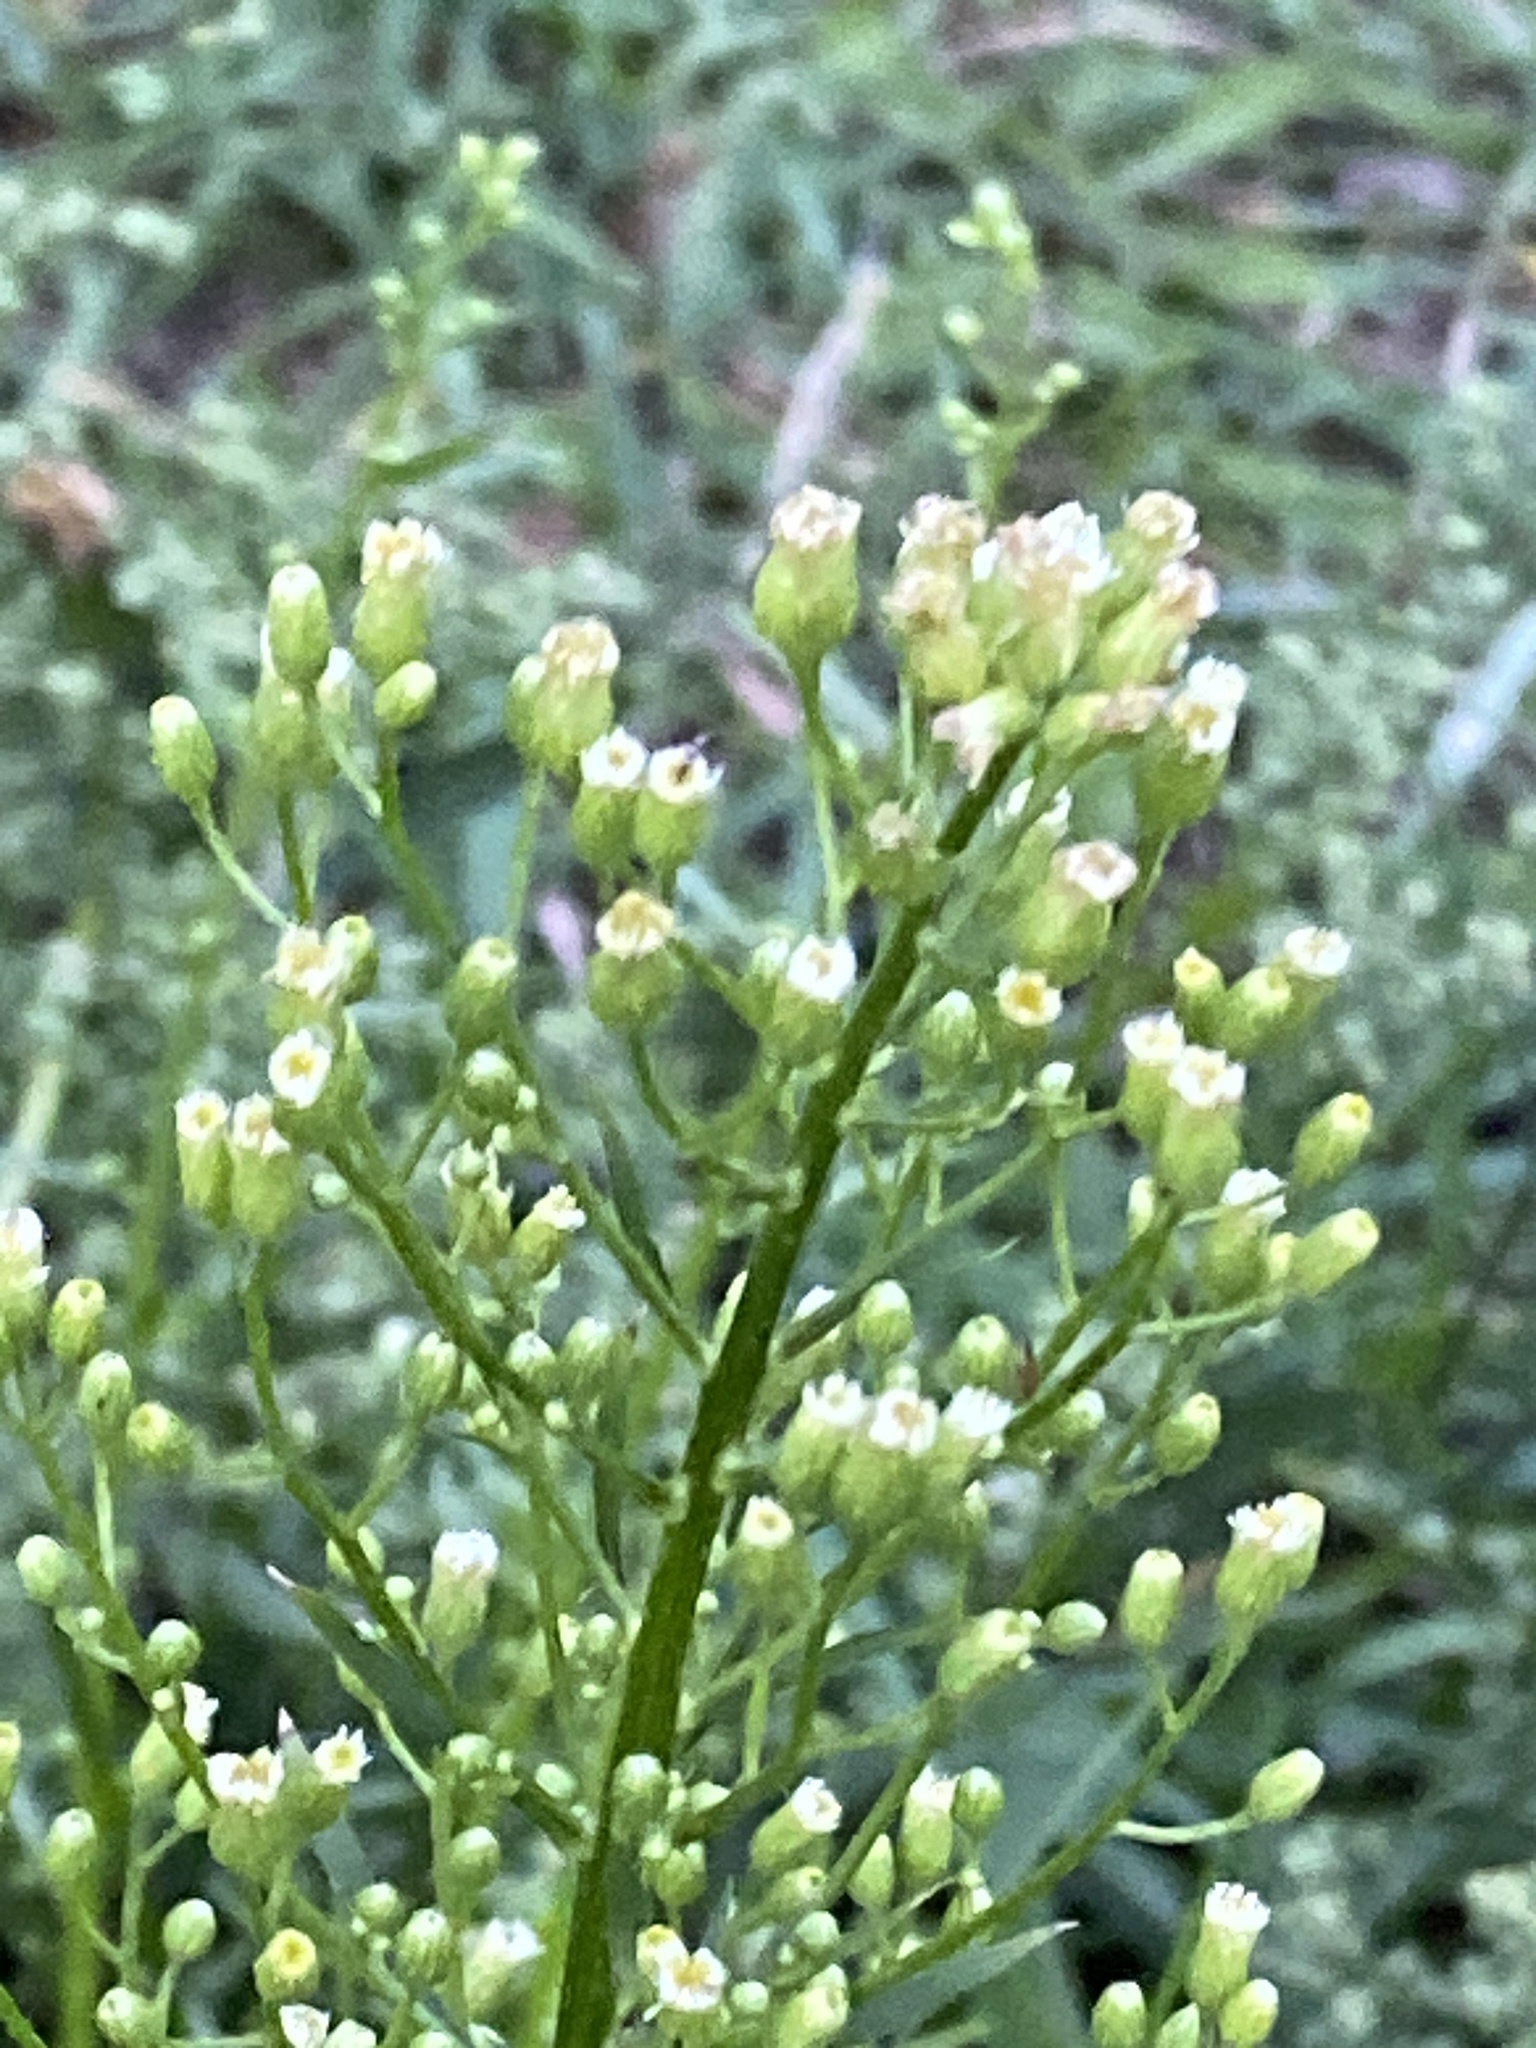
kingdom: Plantae
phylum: Tracheophyta
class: Magnoliopsida
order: Asterales
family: Asteraceae
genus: Erigeron
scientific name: Erigeron canadensis
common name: Canadian fleabane
